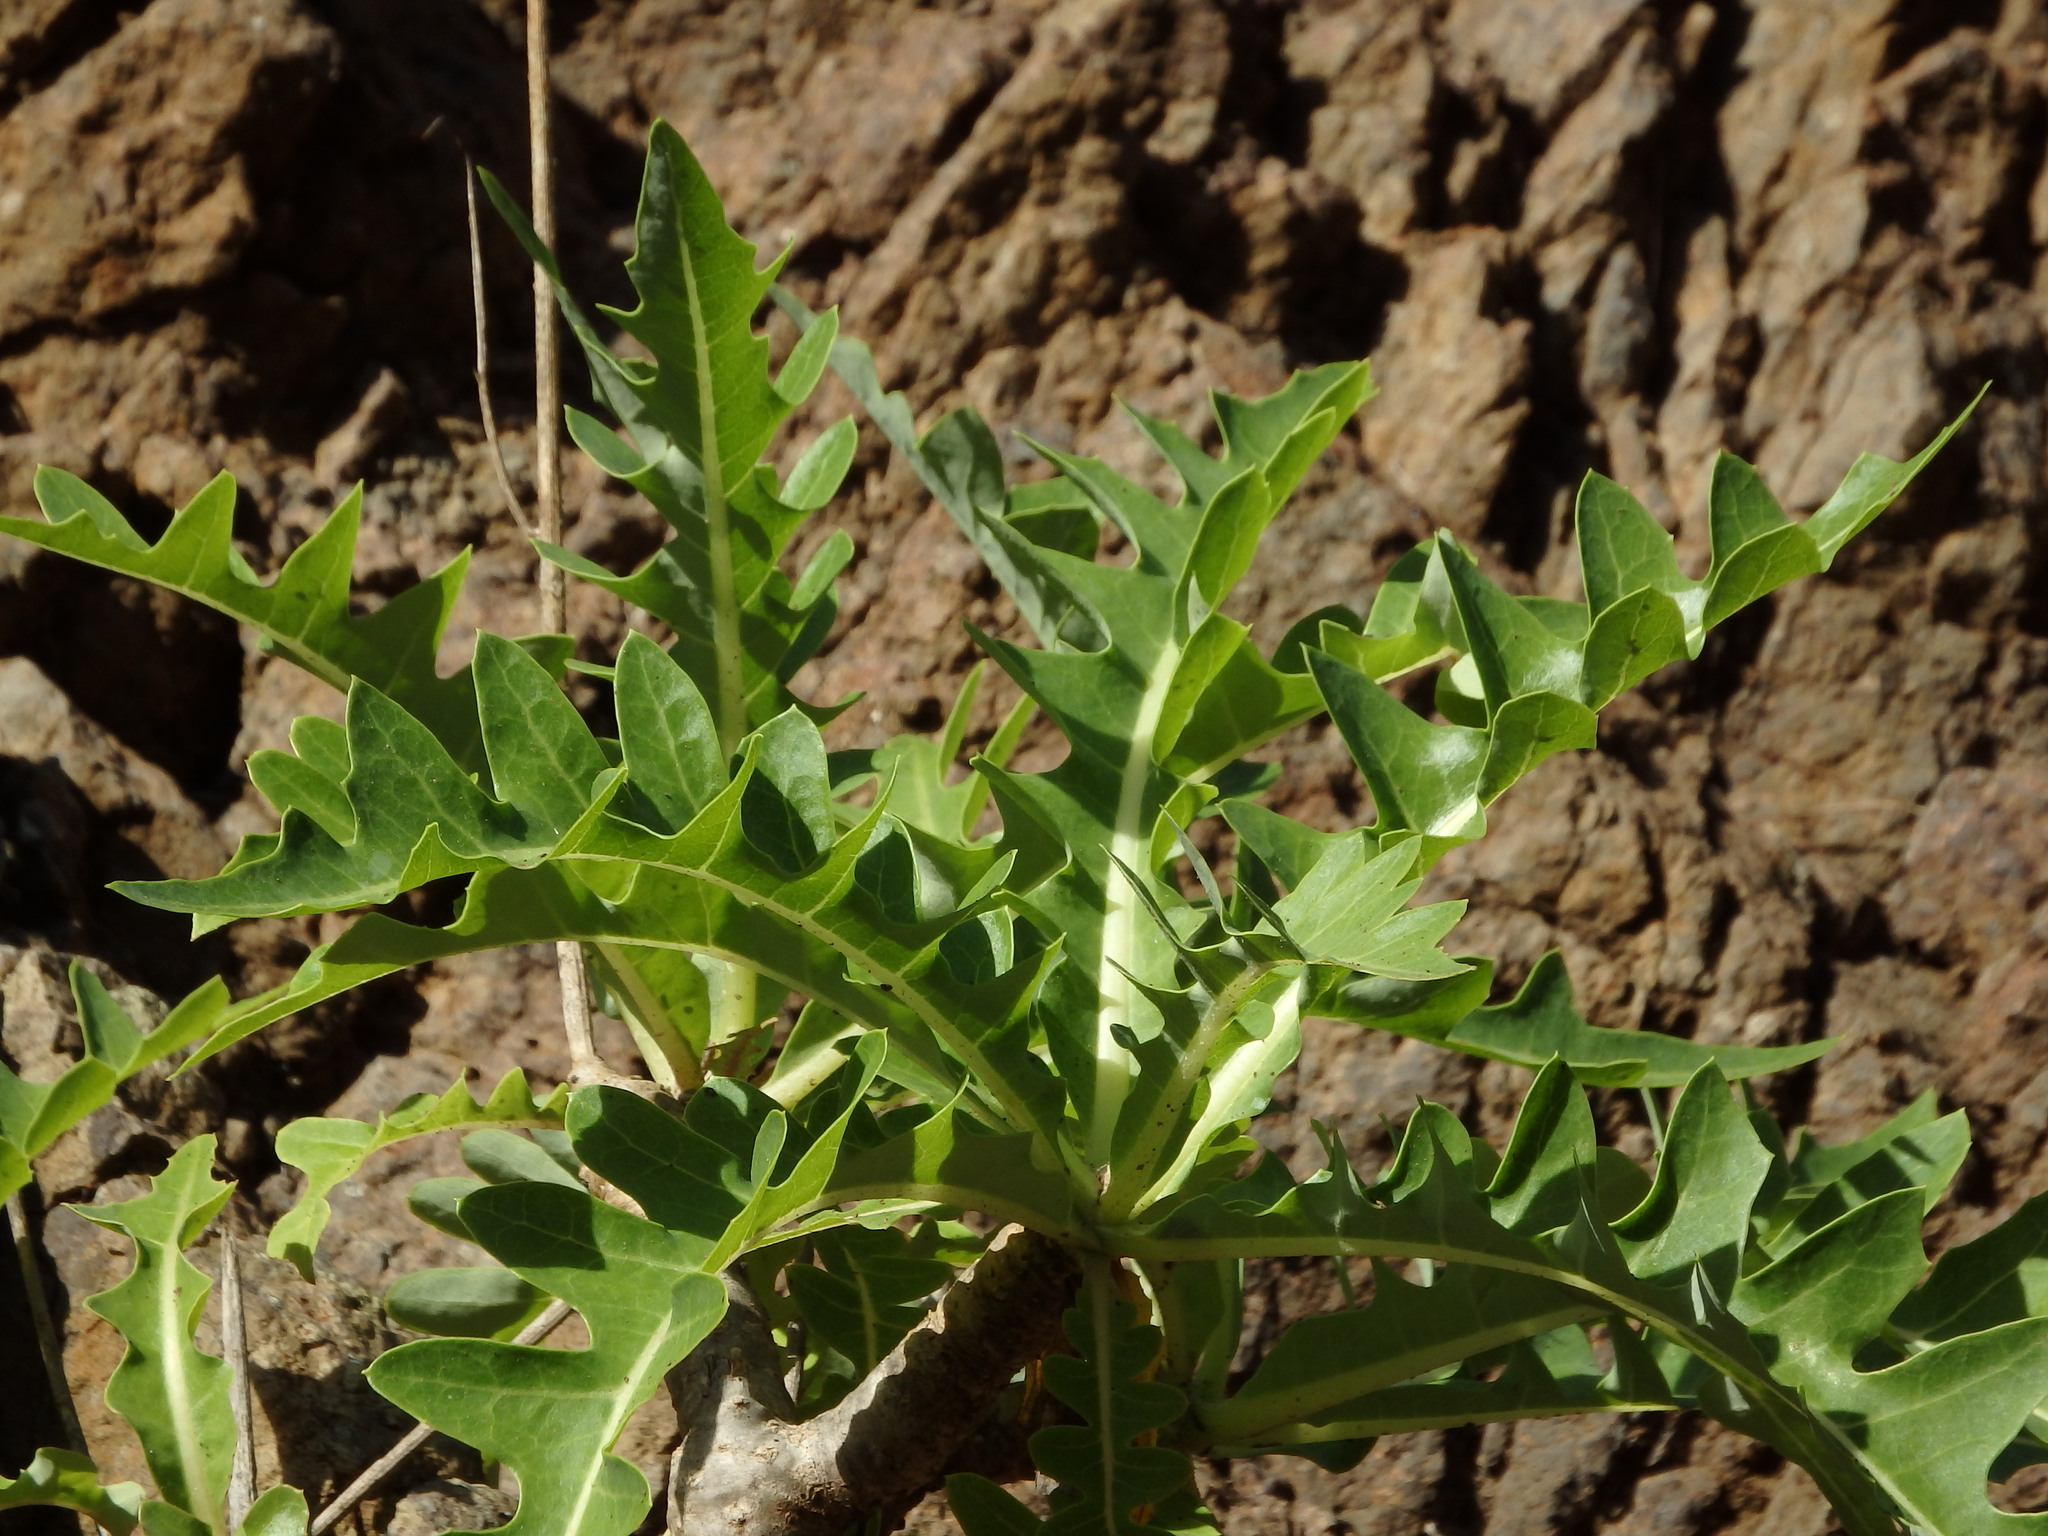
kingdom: Plantae
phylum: Tracheophyta
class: Magnoliopsida
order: Asterales
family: Asteraceae
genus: Sonchus
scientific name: Sonchus parathalassius
